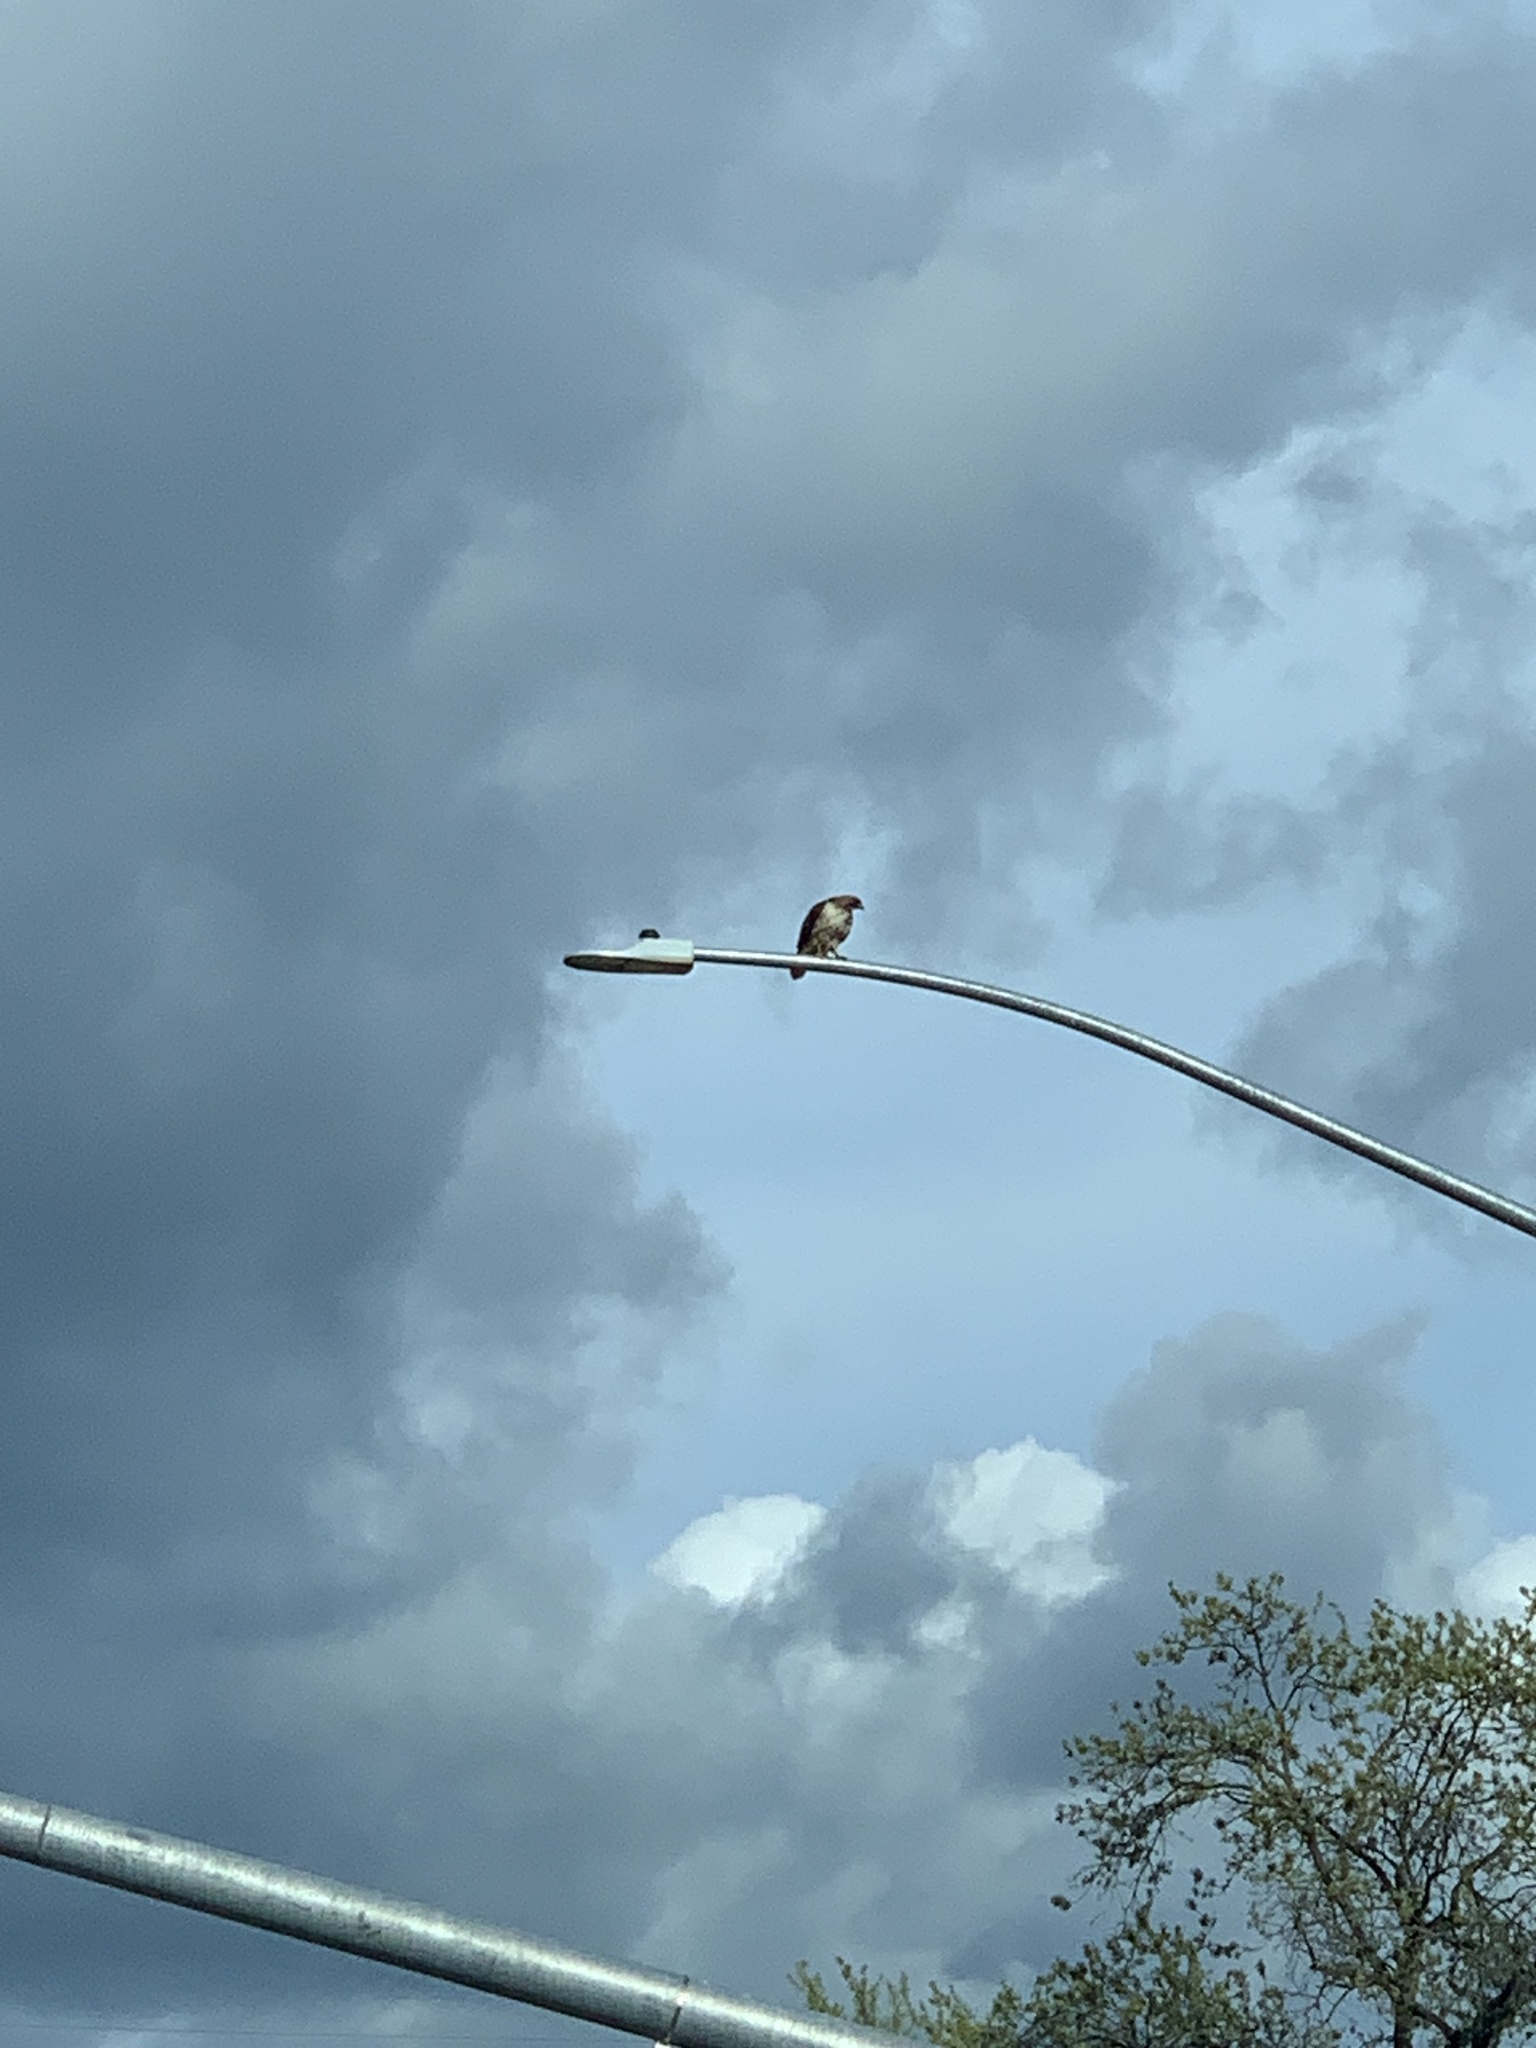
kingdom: Animalia
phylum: Chordata
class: Aves
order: Accipitriformes
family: Accipitridae
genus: Buteo
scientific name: Buteo jamaicensis
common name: Red-tailed hawk
